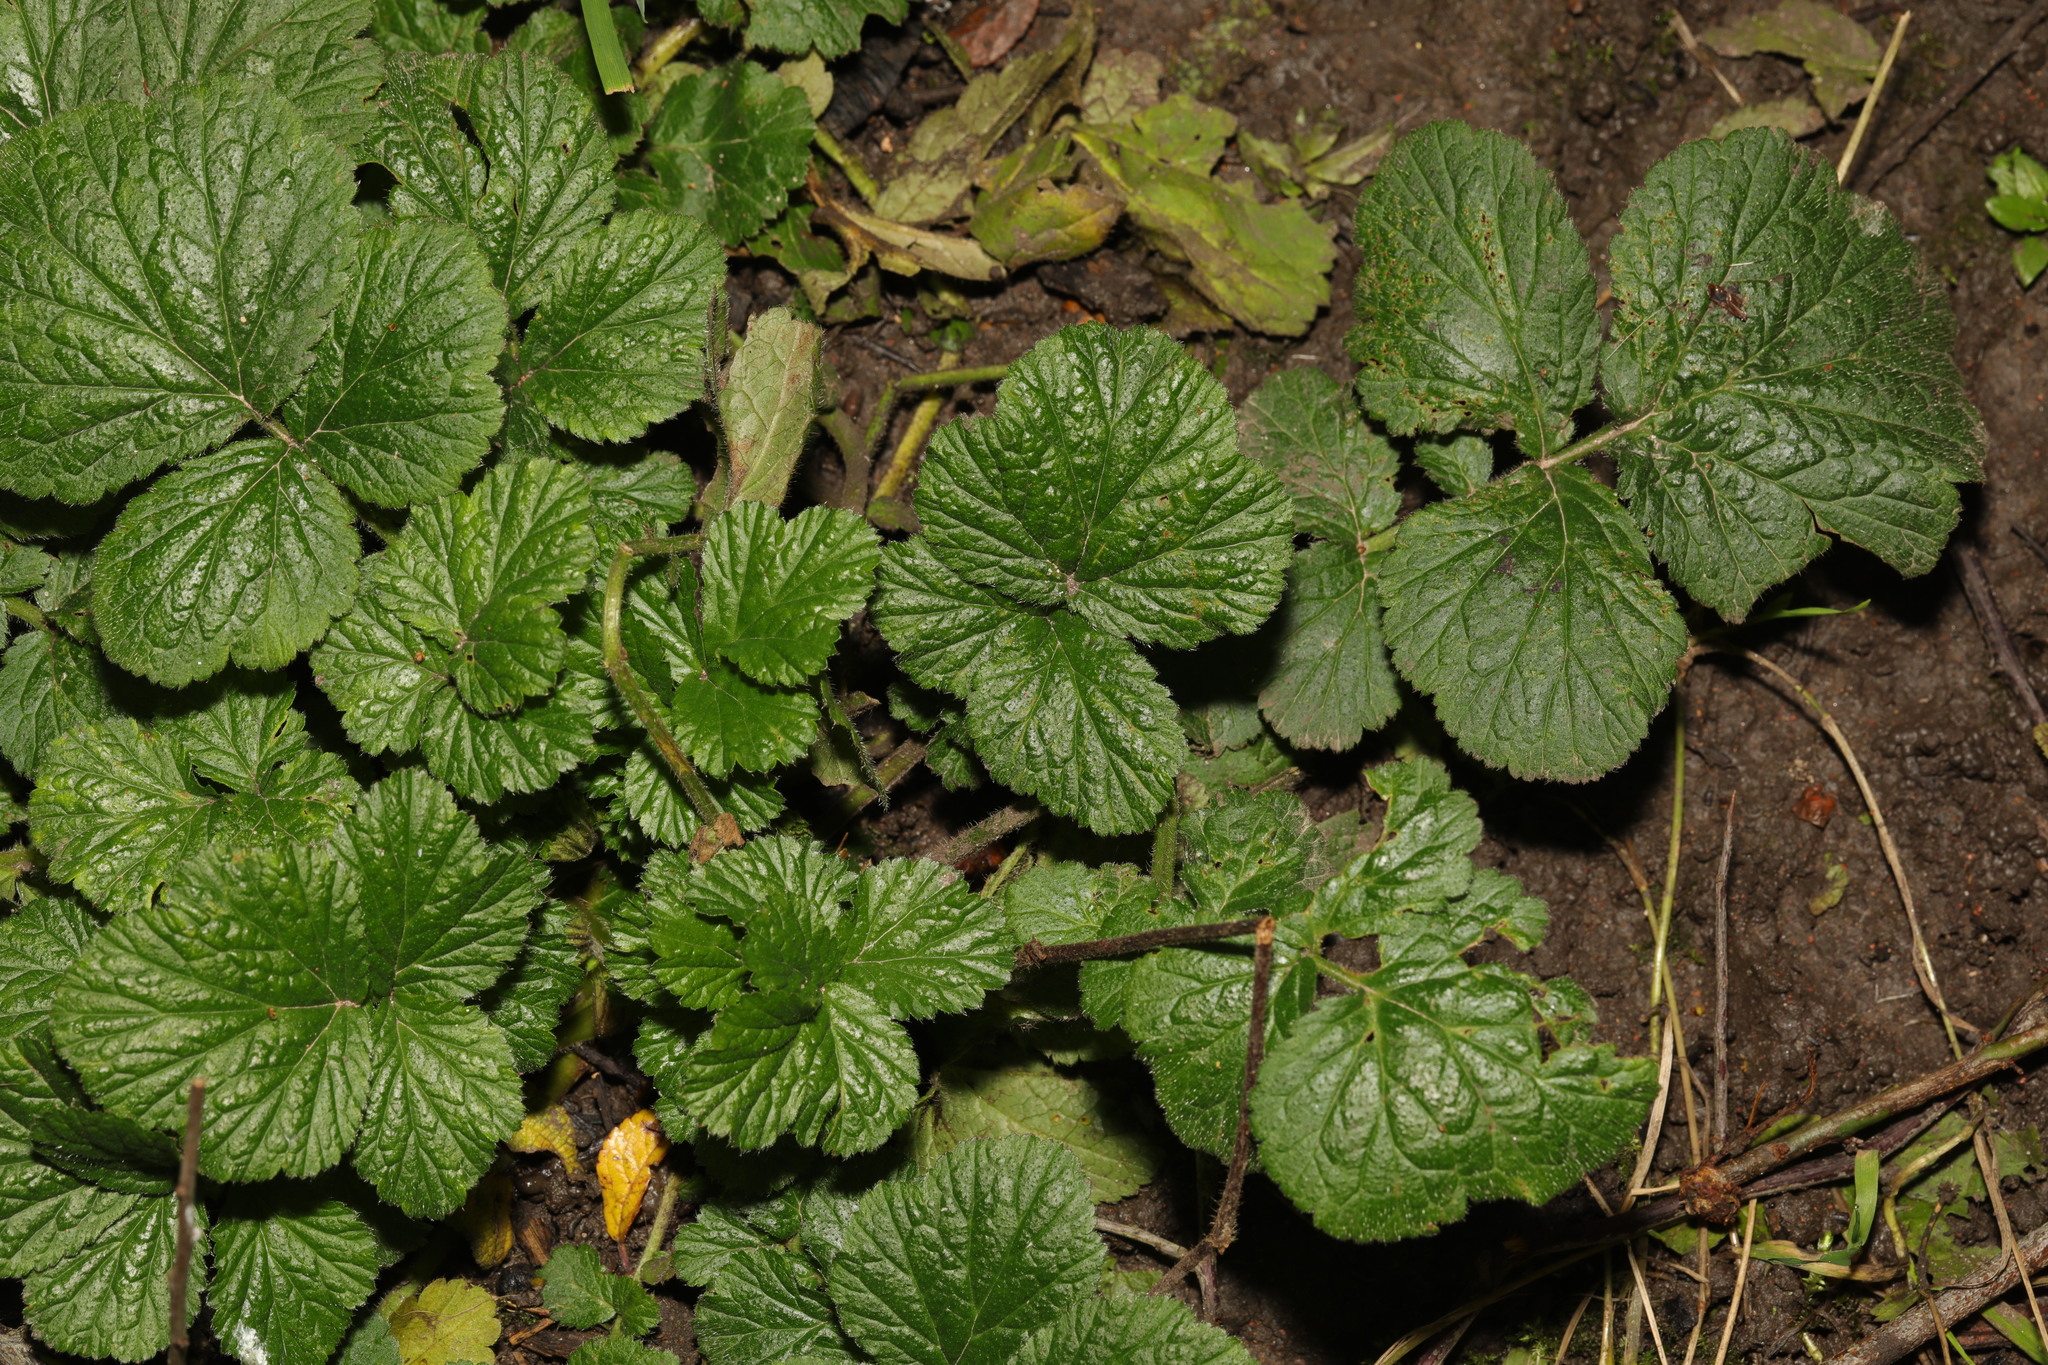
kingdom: Plantae
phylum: Tracheophyta
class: Magnoliopsida
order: Rosales
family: Rosaceae
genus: Geum
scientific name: Geum urbanum
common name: Wood avens
